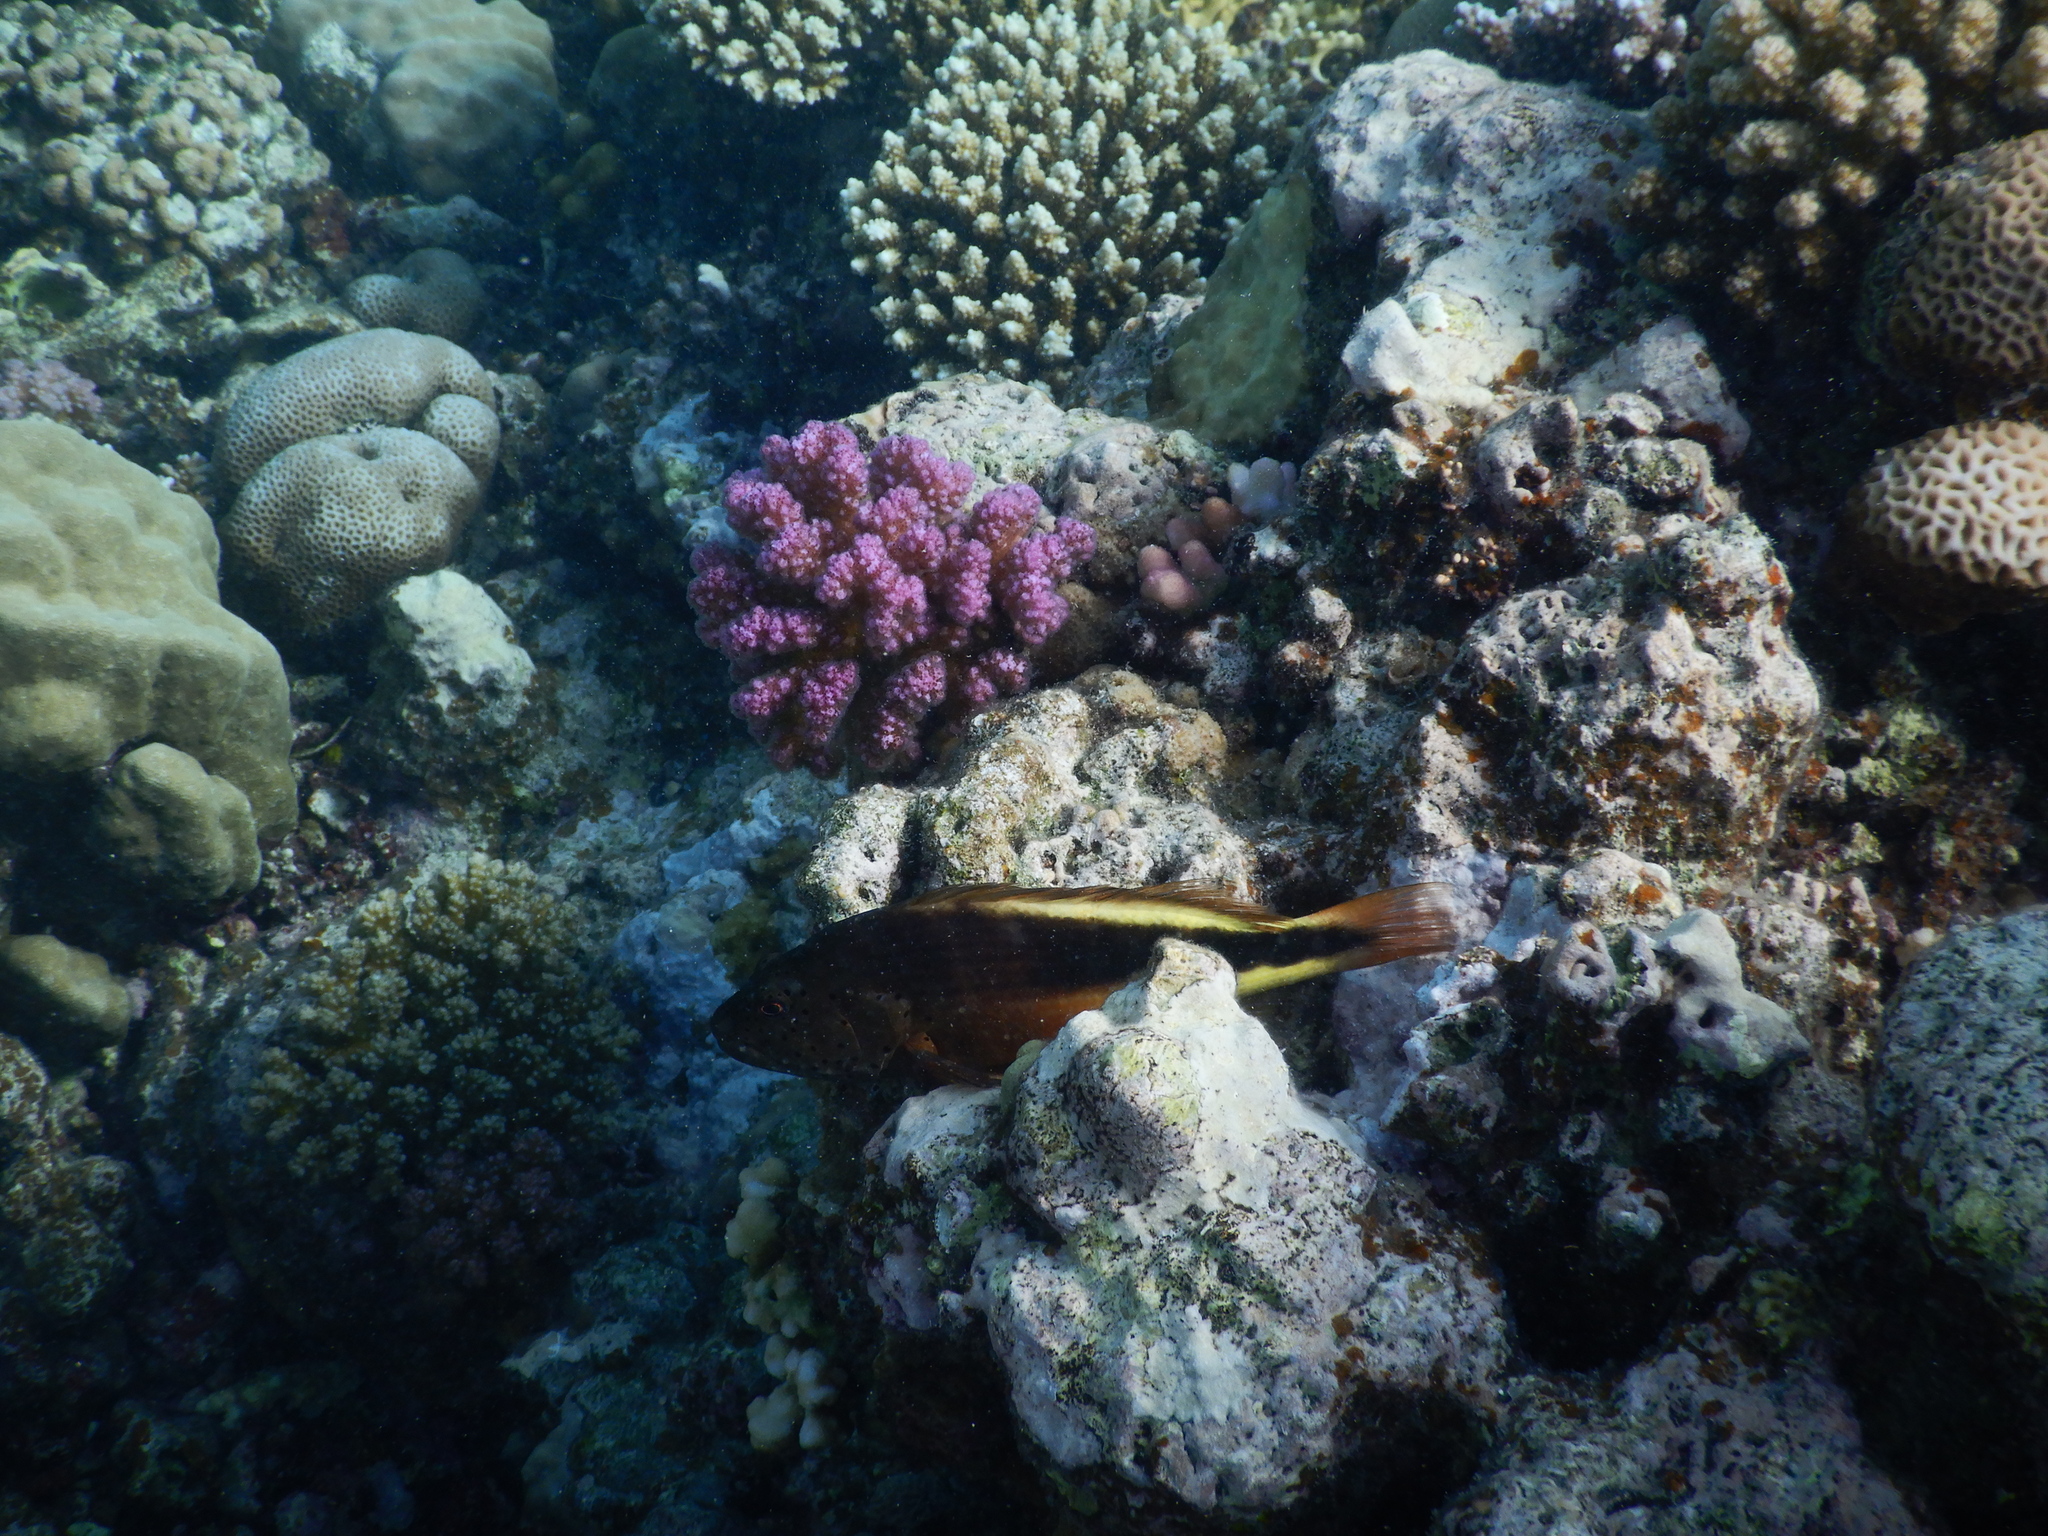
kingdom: Animalia
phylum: Chordata
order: Perciformes
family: Cirrhitidae
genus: Paracirrhites
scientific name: Paracirrhites forsteri
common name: Freckled hawkfish
